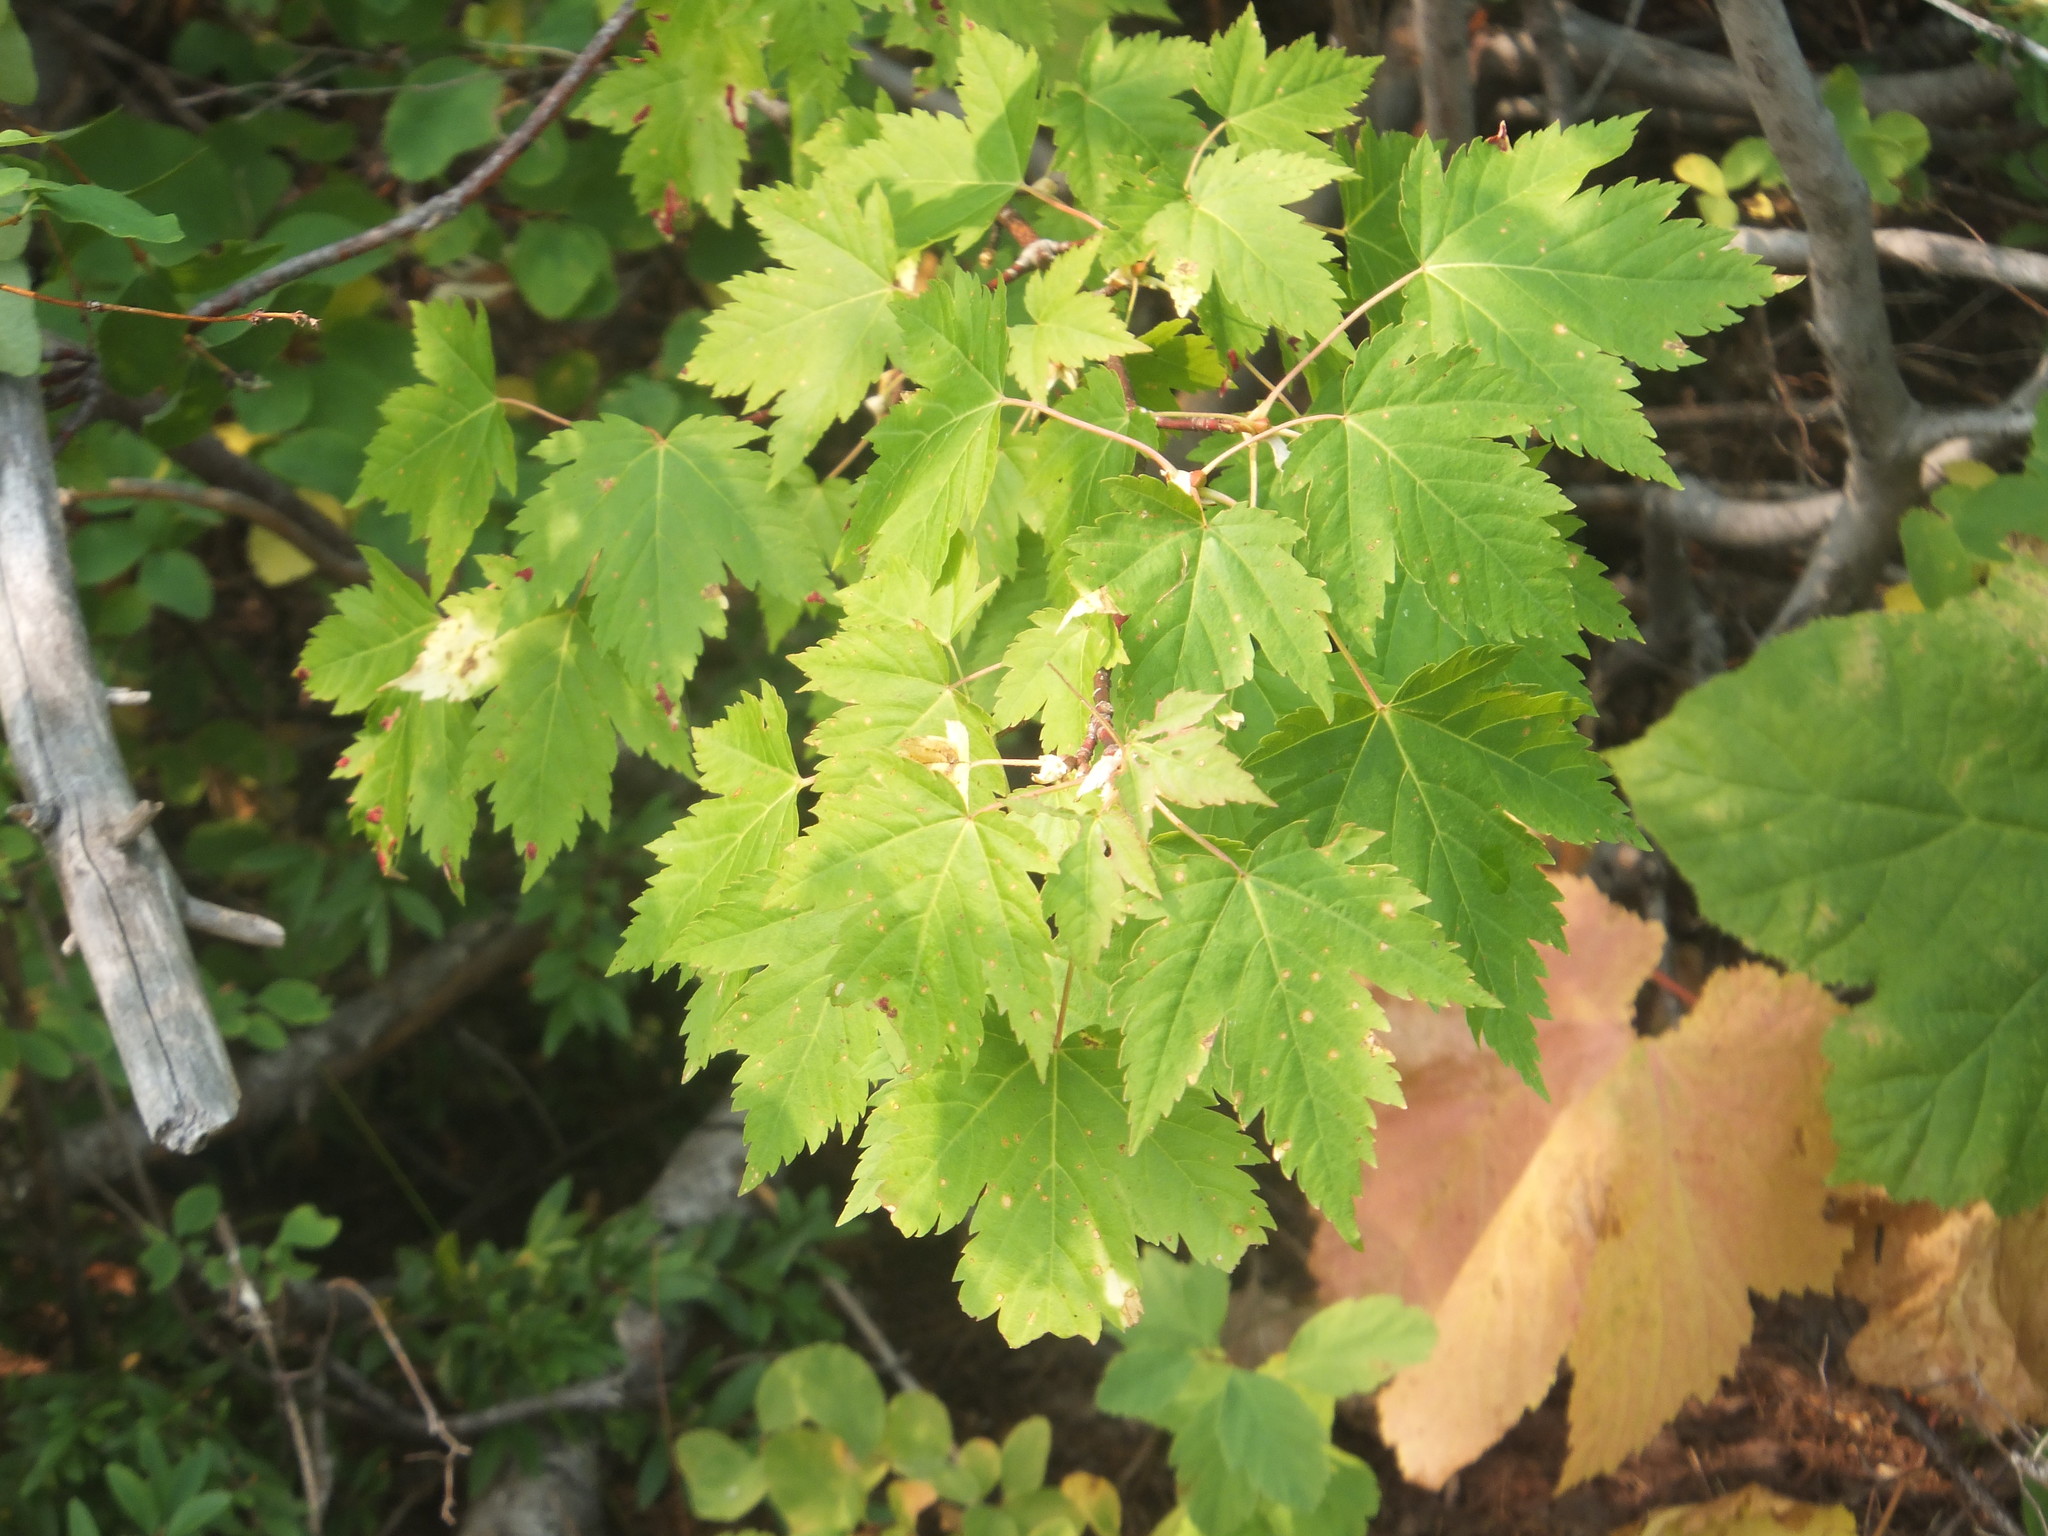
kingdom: Plantae
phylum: Tracheophyta
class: Magnoliopsida
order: Sapindales
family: Sapindaceae
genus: Acer
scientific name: Acer glabrum
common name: Rocky mountain maple
